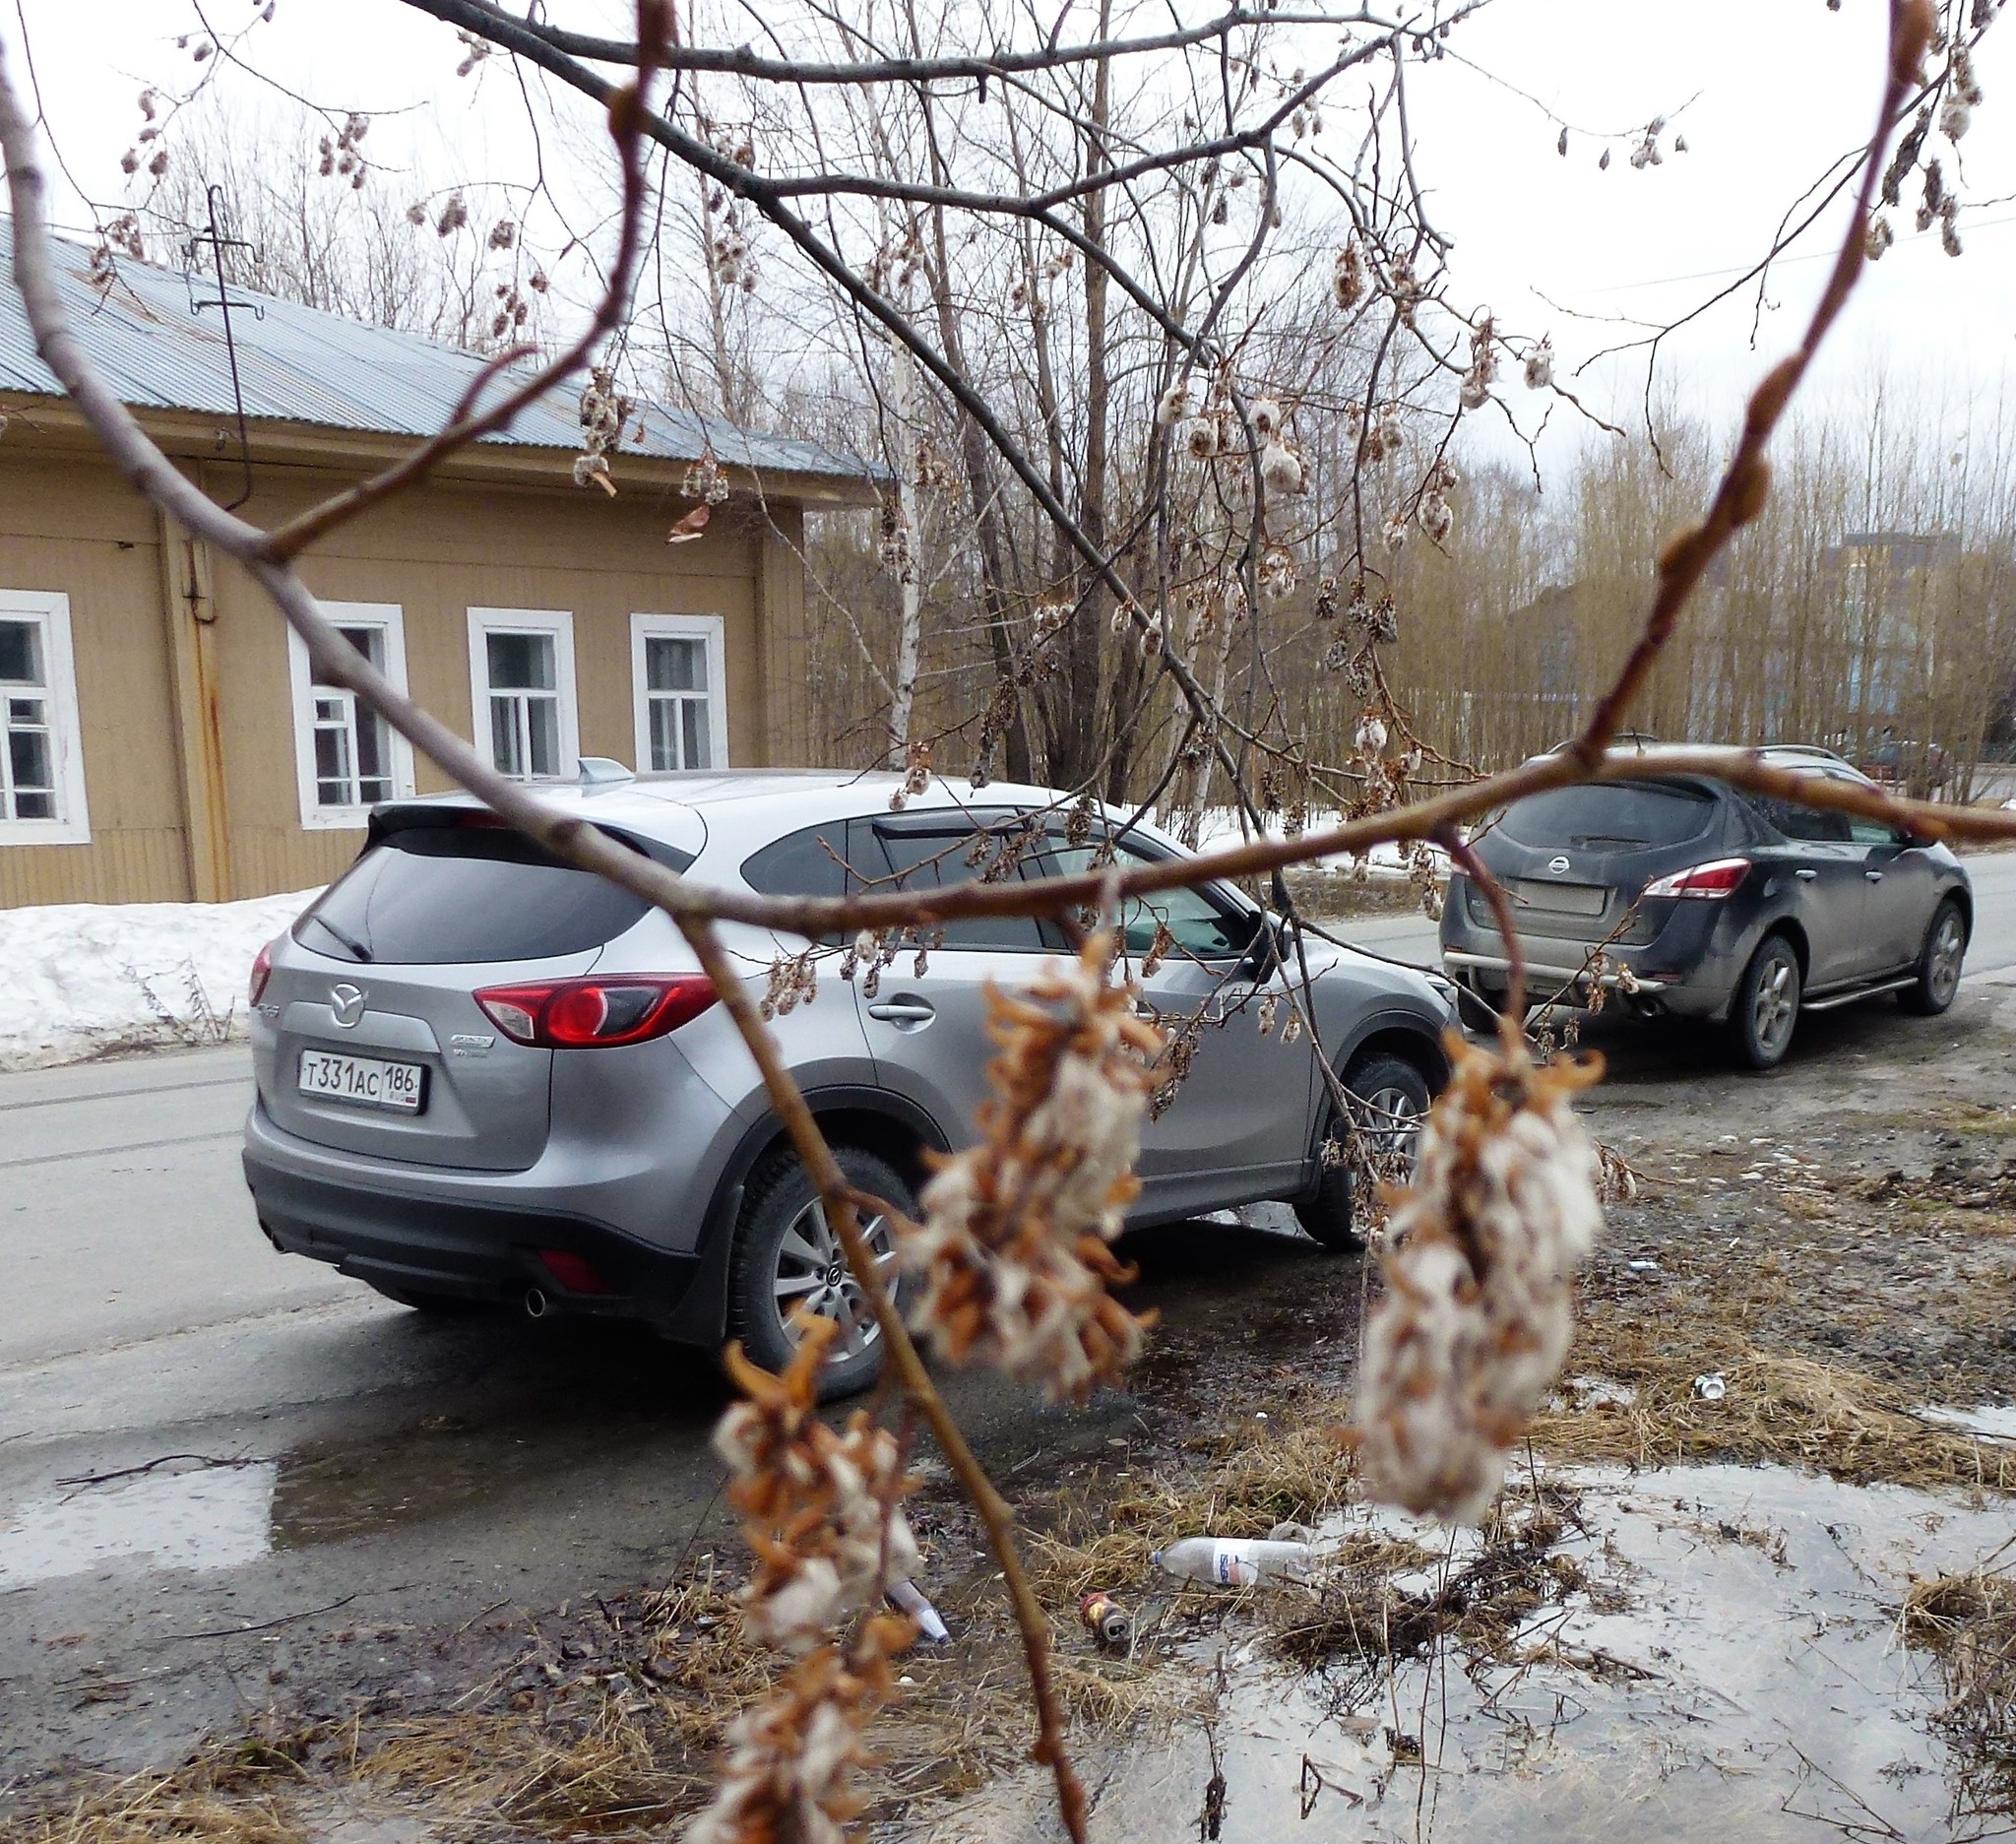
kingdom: Plantae
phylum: Tracheophyta
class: Magnoliopsida
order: Malpighiales
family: Salicaceae
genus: Salix
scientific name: Salix pentandra
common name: Bay willow
